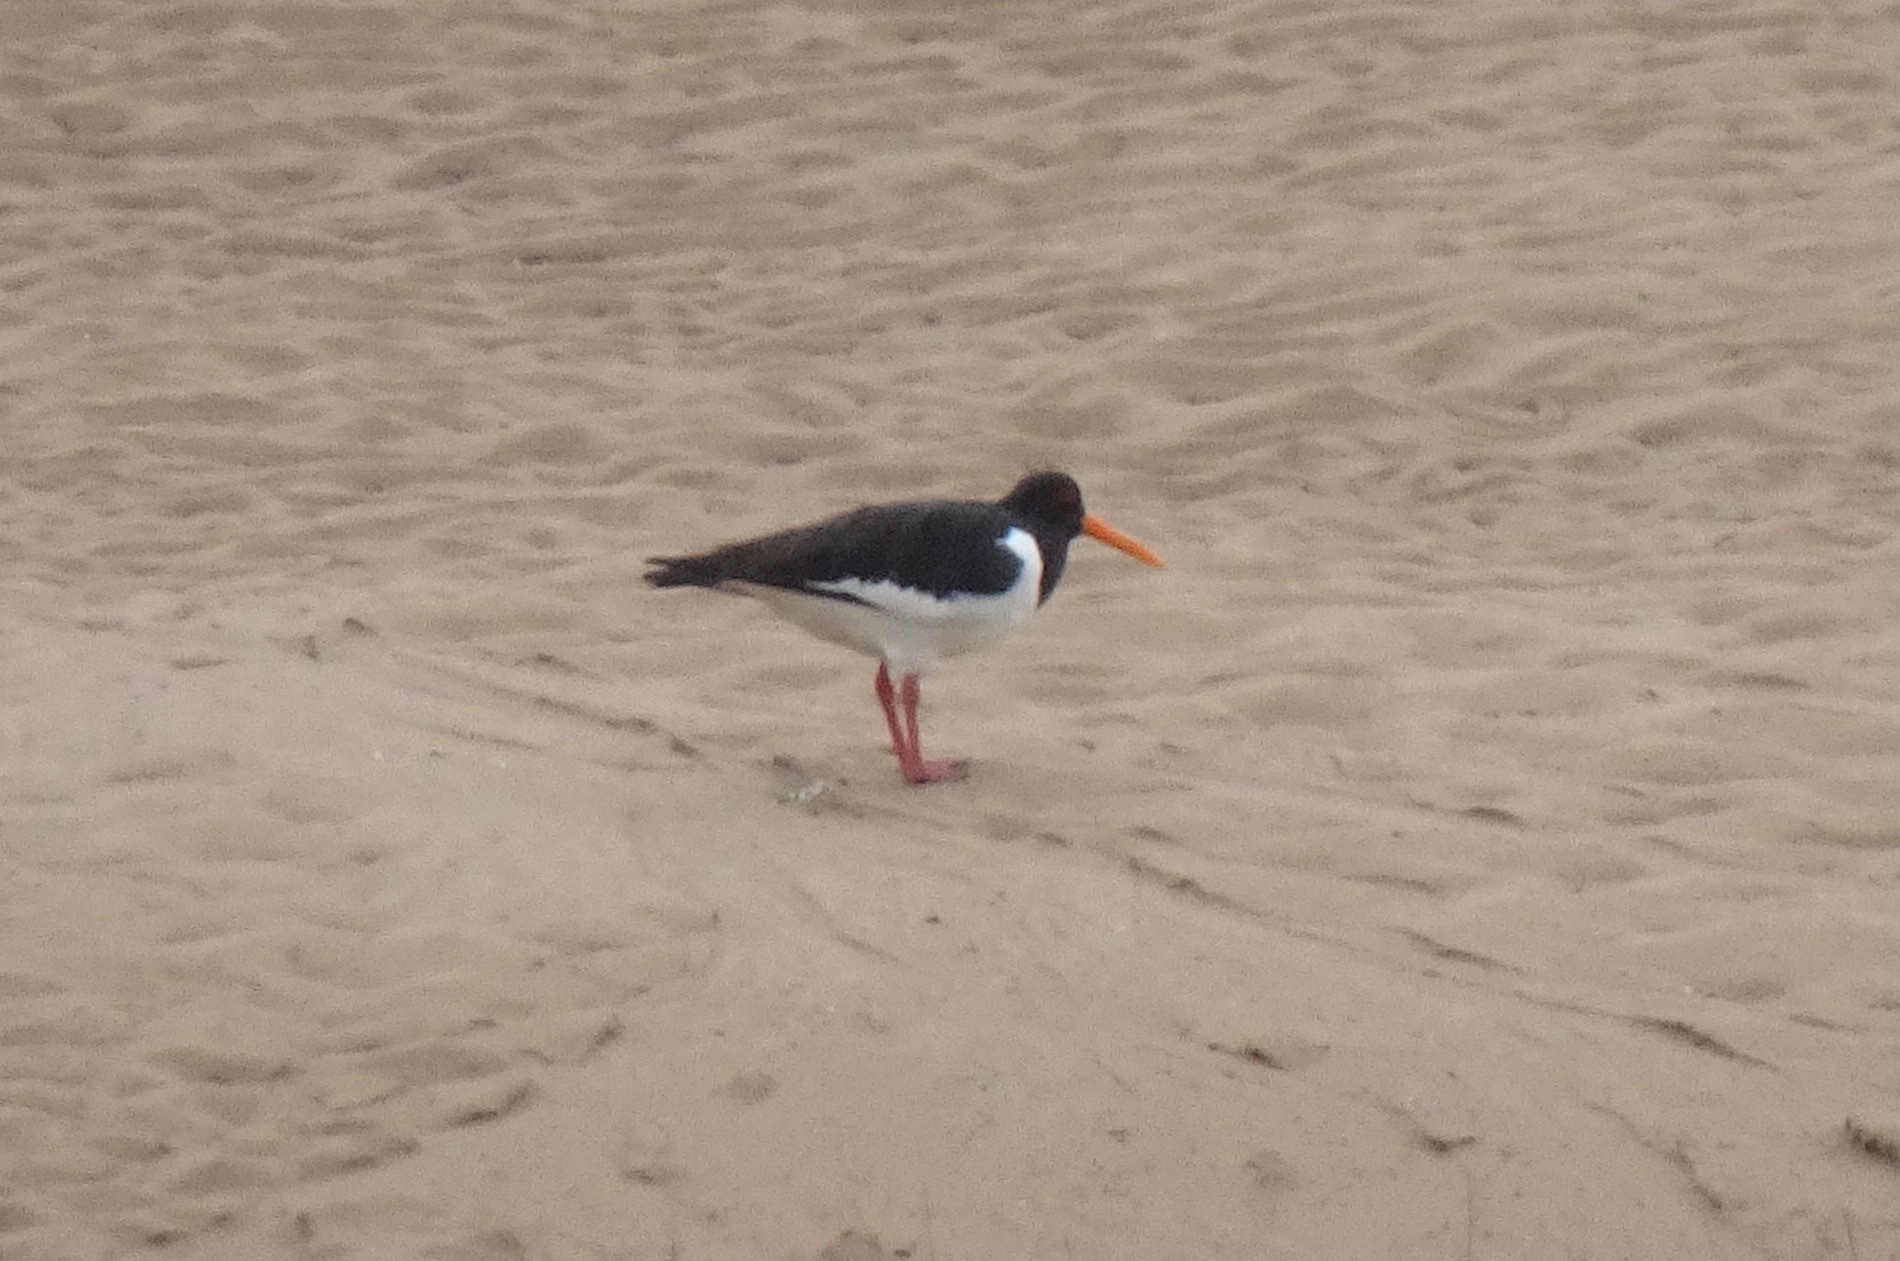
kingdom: Animalia
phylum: Chordata
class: Aves
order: Charadriiformes
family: Haematopodidae
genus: Haematopus
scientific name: Haematopus ostralegus
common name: Eurasian oystercatcher
